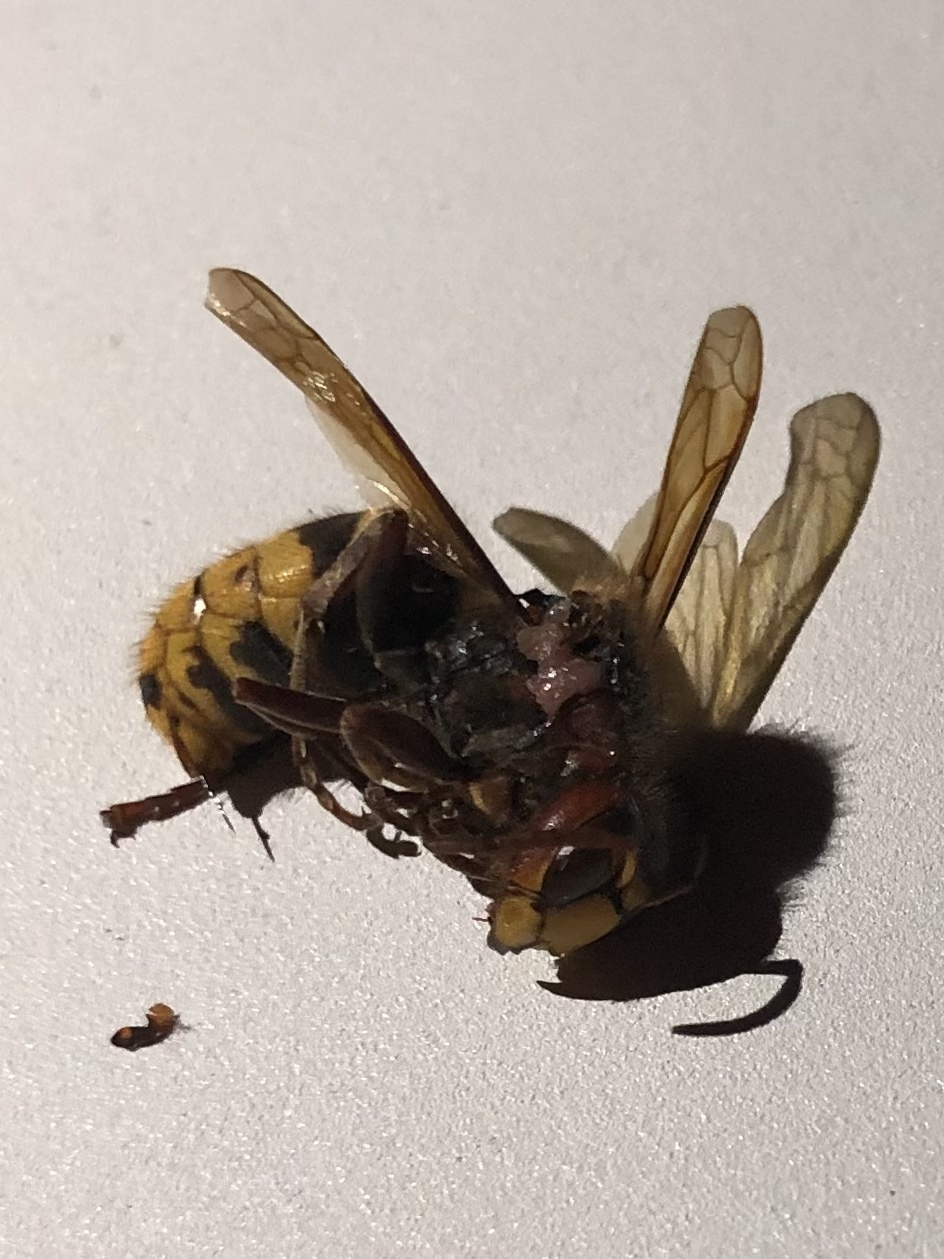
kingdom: Animalia
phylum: Arthropoda
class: Insecta
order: Hymenoptera
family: Vespidae
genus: Vespa
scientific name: Vespa crabro
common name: Hornet
